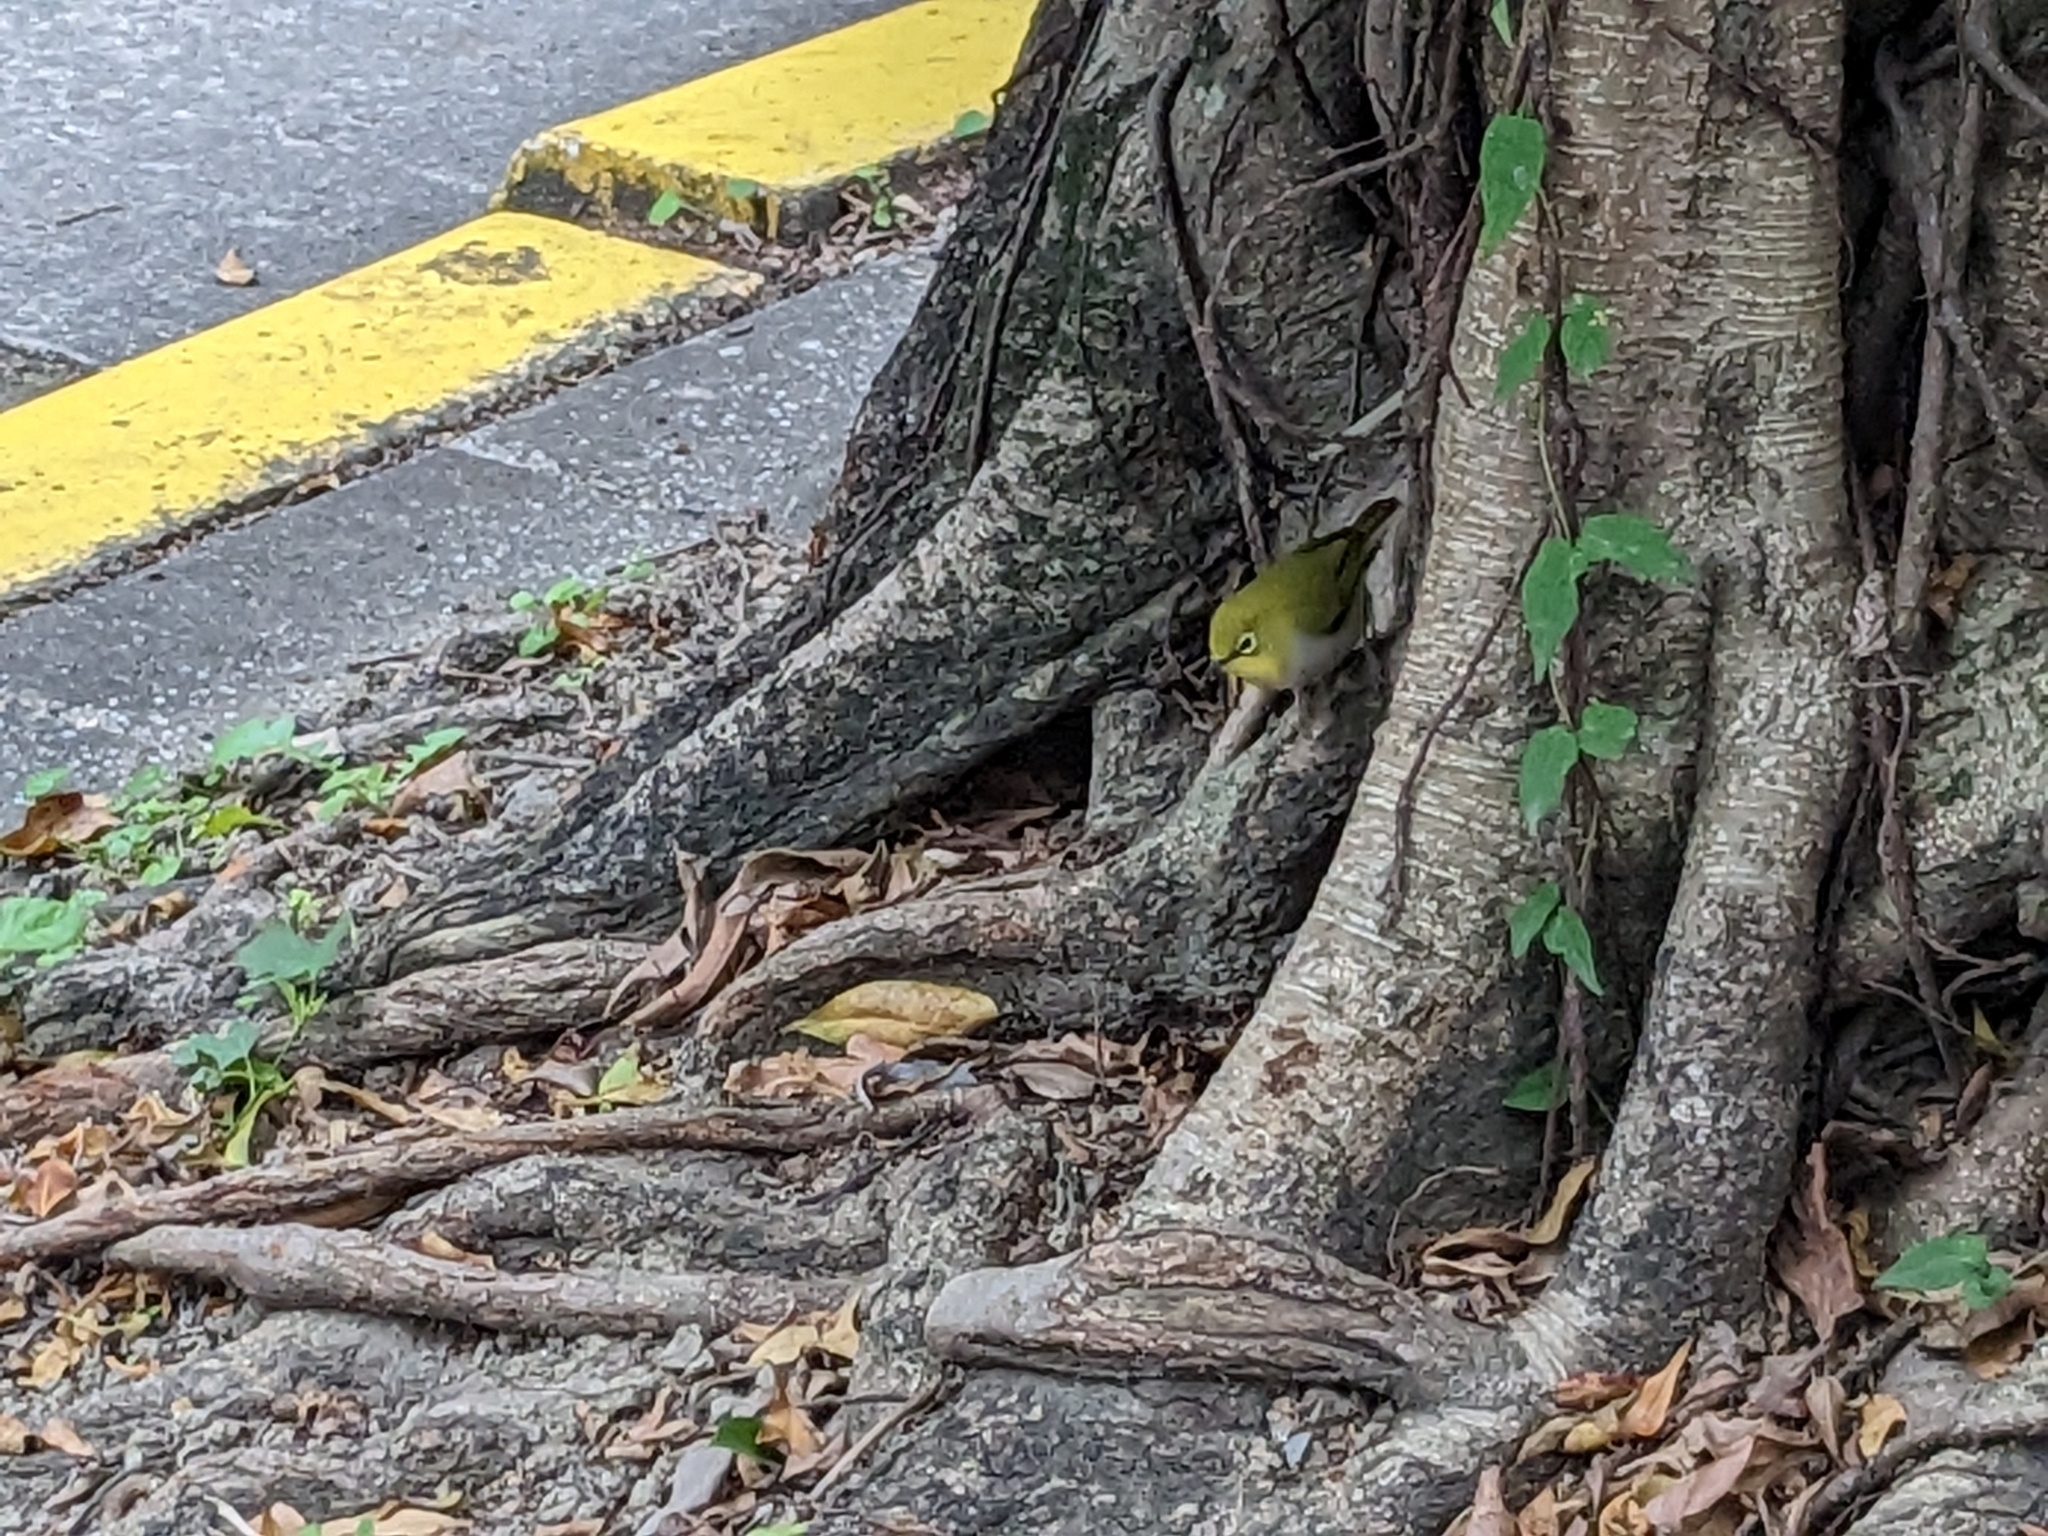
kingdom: Animalia
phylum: Chordata
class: Aves
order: Passeriformes
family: Zosteropidae
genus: Zosterops
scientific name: Zosterops simplex
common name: Swinhoe's white-eye
